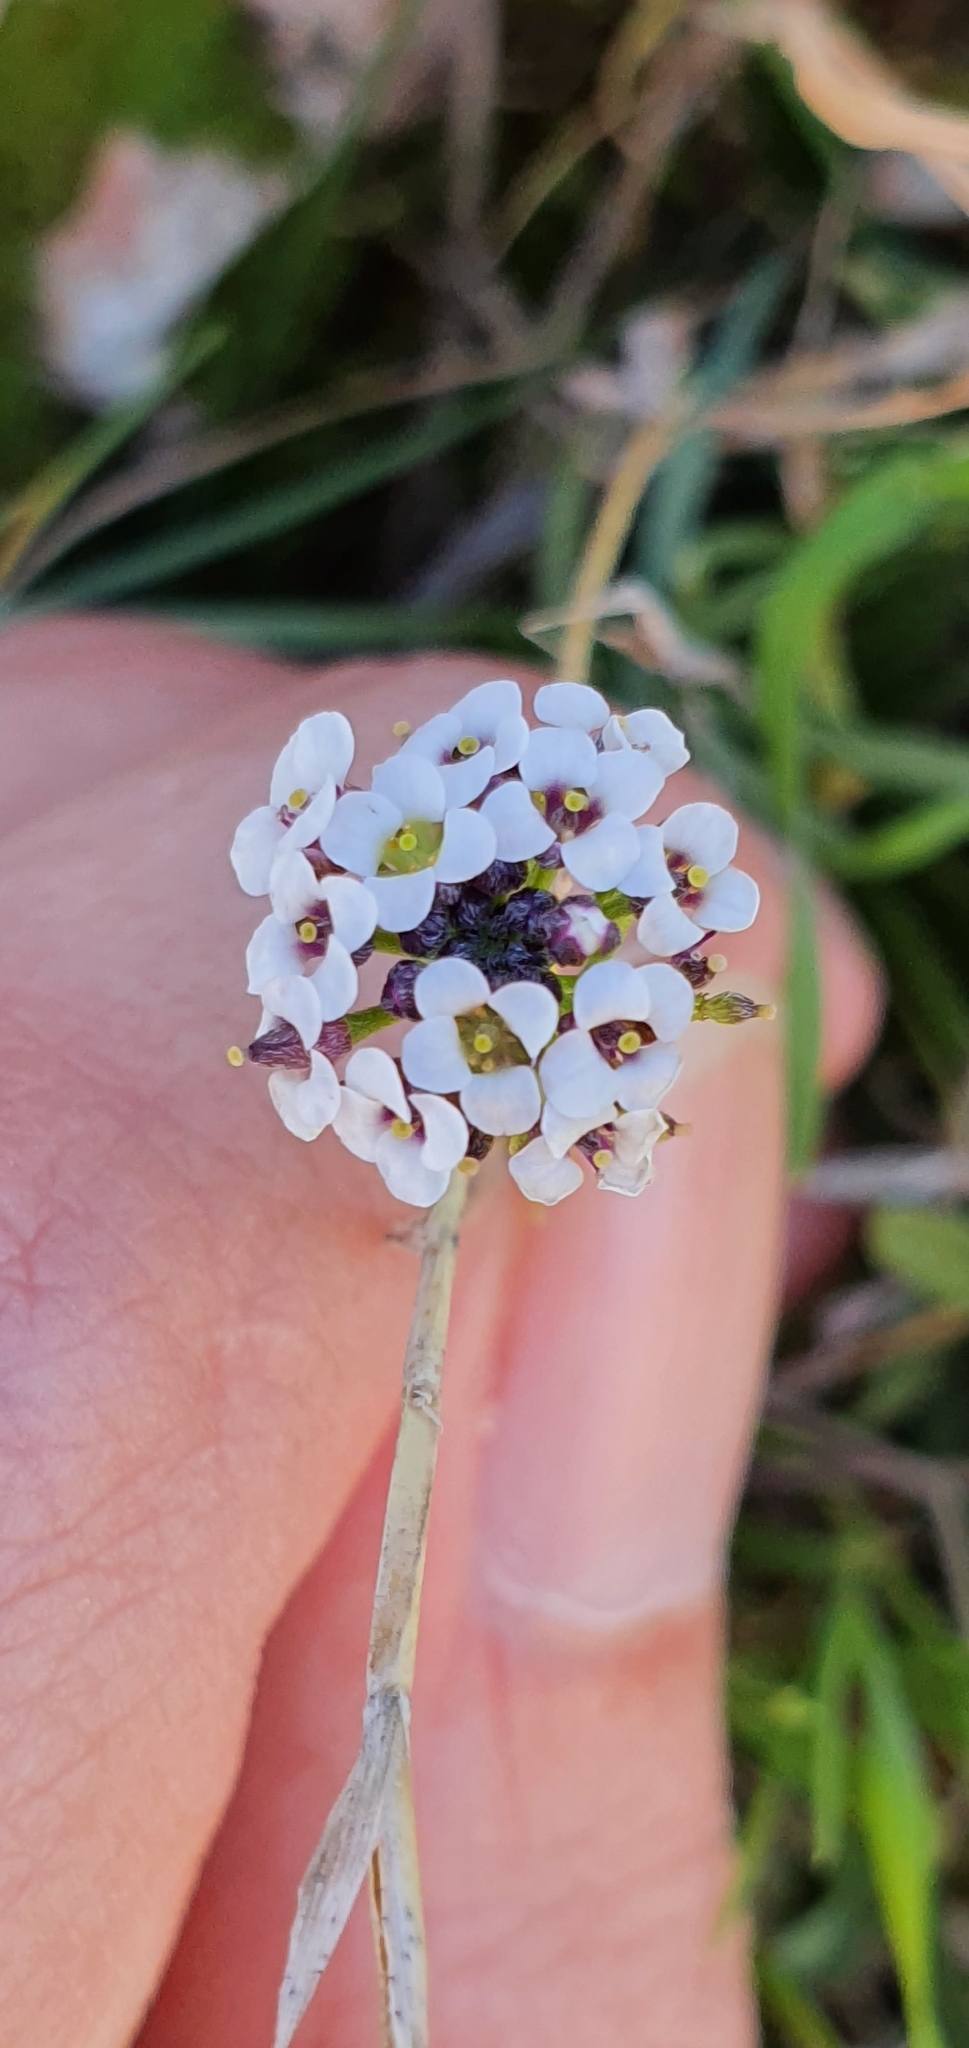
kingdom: Plantae
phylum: Tracheophyta
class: Magnoliopsida
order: Brassicales
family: Brassicaceae
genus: Lobularia
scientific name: Lobularia maritima
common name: Sweet alison
